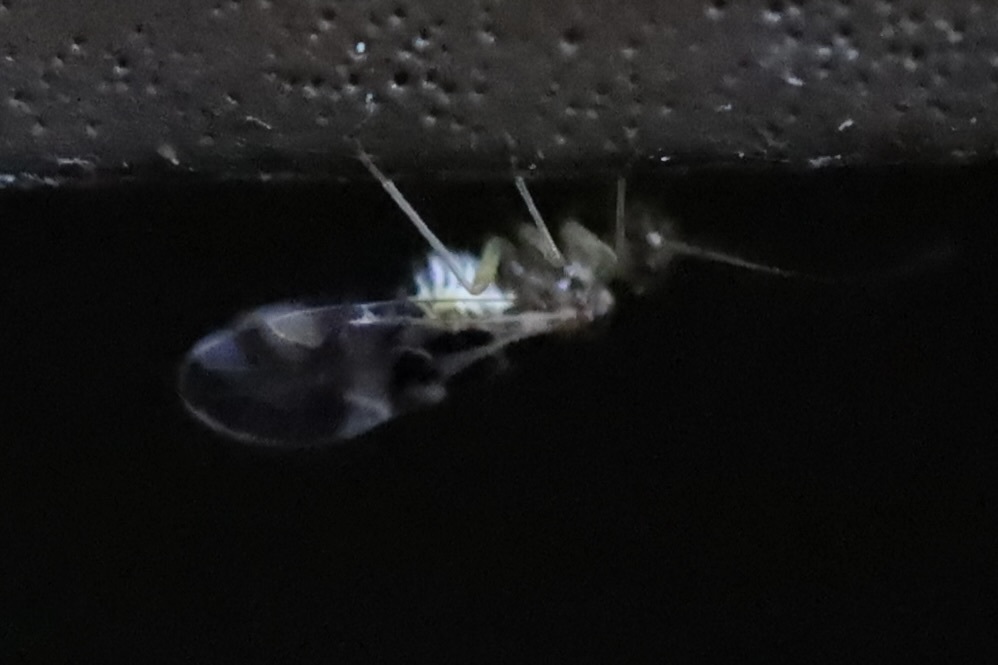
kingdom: Animalia
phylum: Arthropoda
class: Insecta
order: Psocodea
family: Stenopsocidae
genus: Graphopsocus
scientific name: Graphopsocus cruciatus
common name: Lizard bark louse
